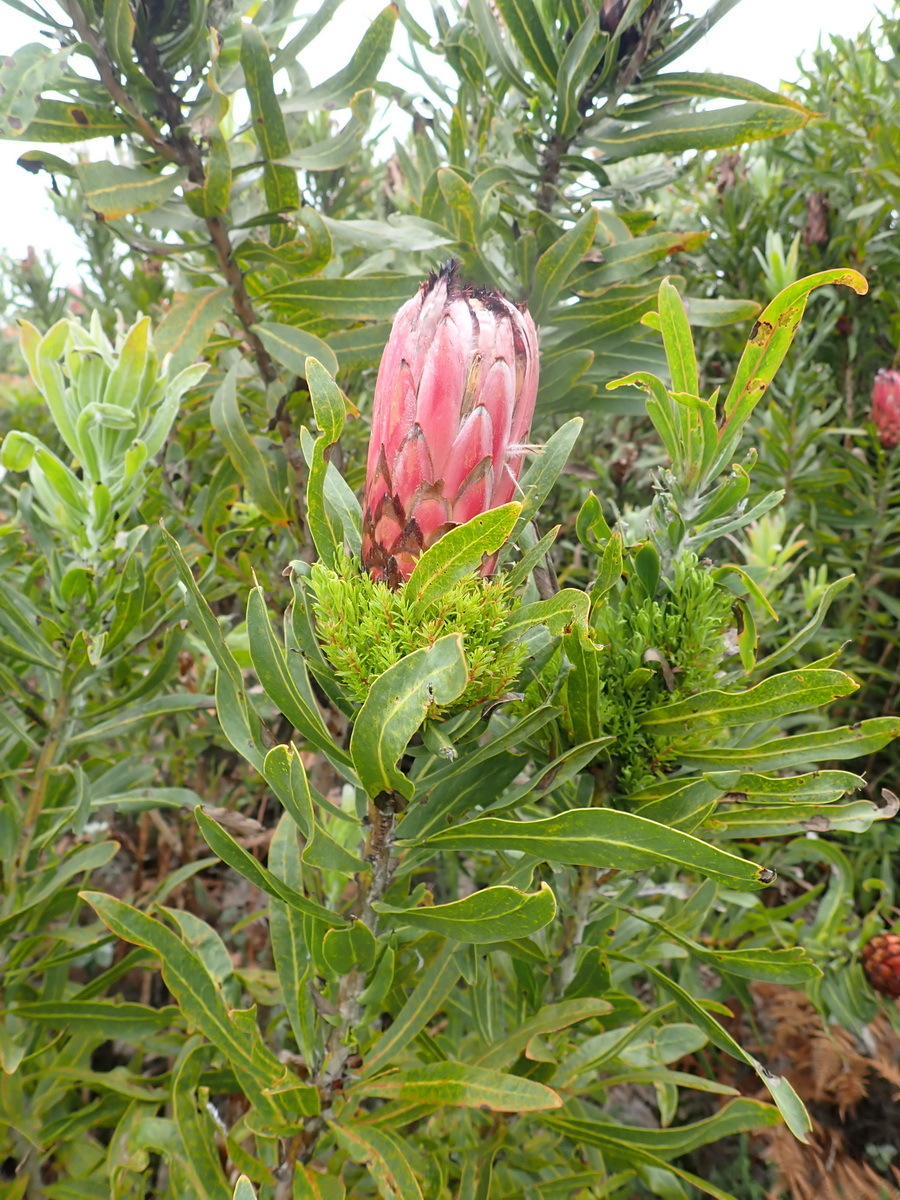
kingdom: Plantae
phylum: Tracheophyta
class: Magnoliopsida
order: Proteales
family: Proteaceae
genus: Protea
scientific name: Protea neriifolia
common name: Blue sugarbush
